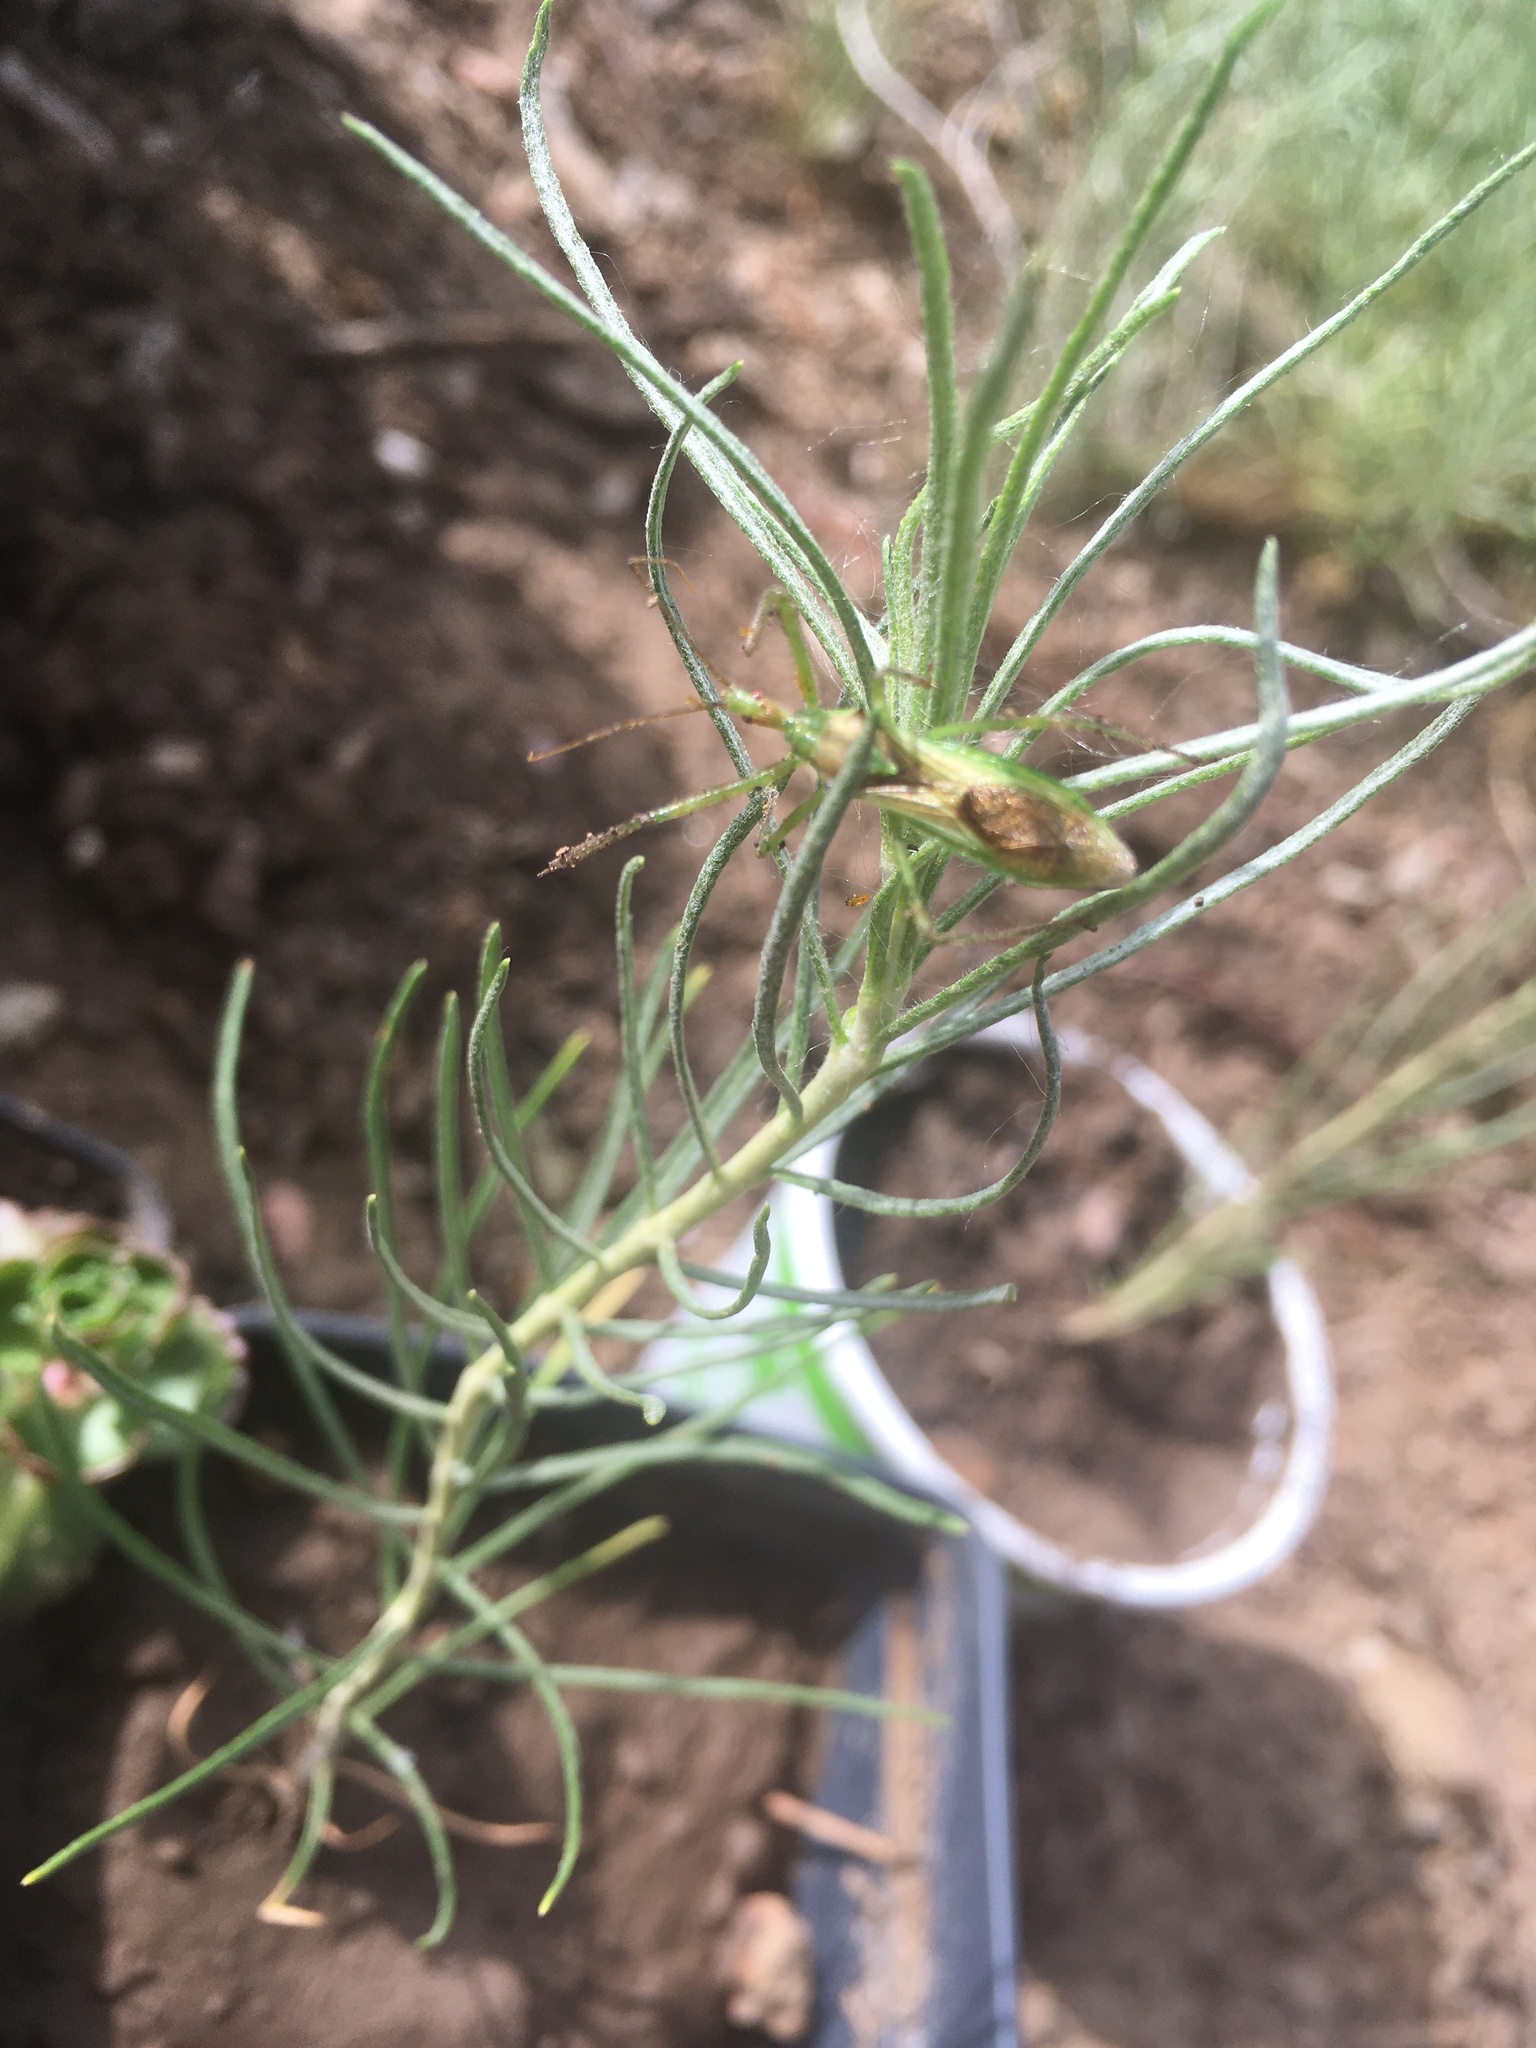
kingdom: Animalia
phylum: Arthropoda
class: Insecta
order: Hemiptera
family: Reduviidae
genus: Zelus
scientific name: Zelus luridus
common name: Pale green assassin bug
